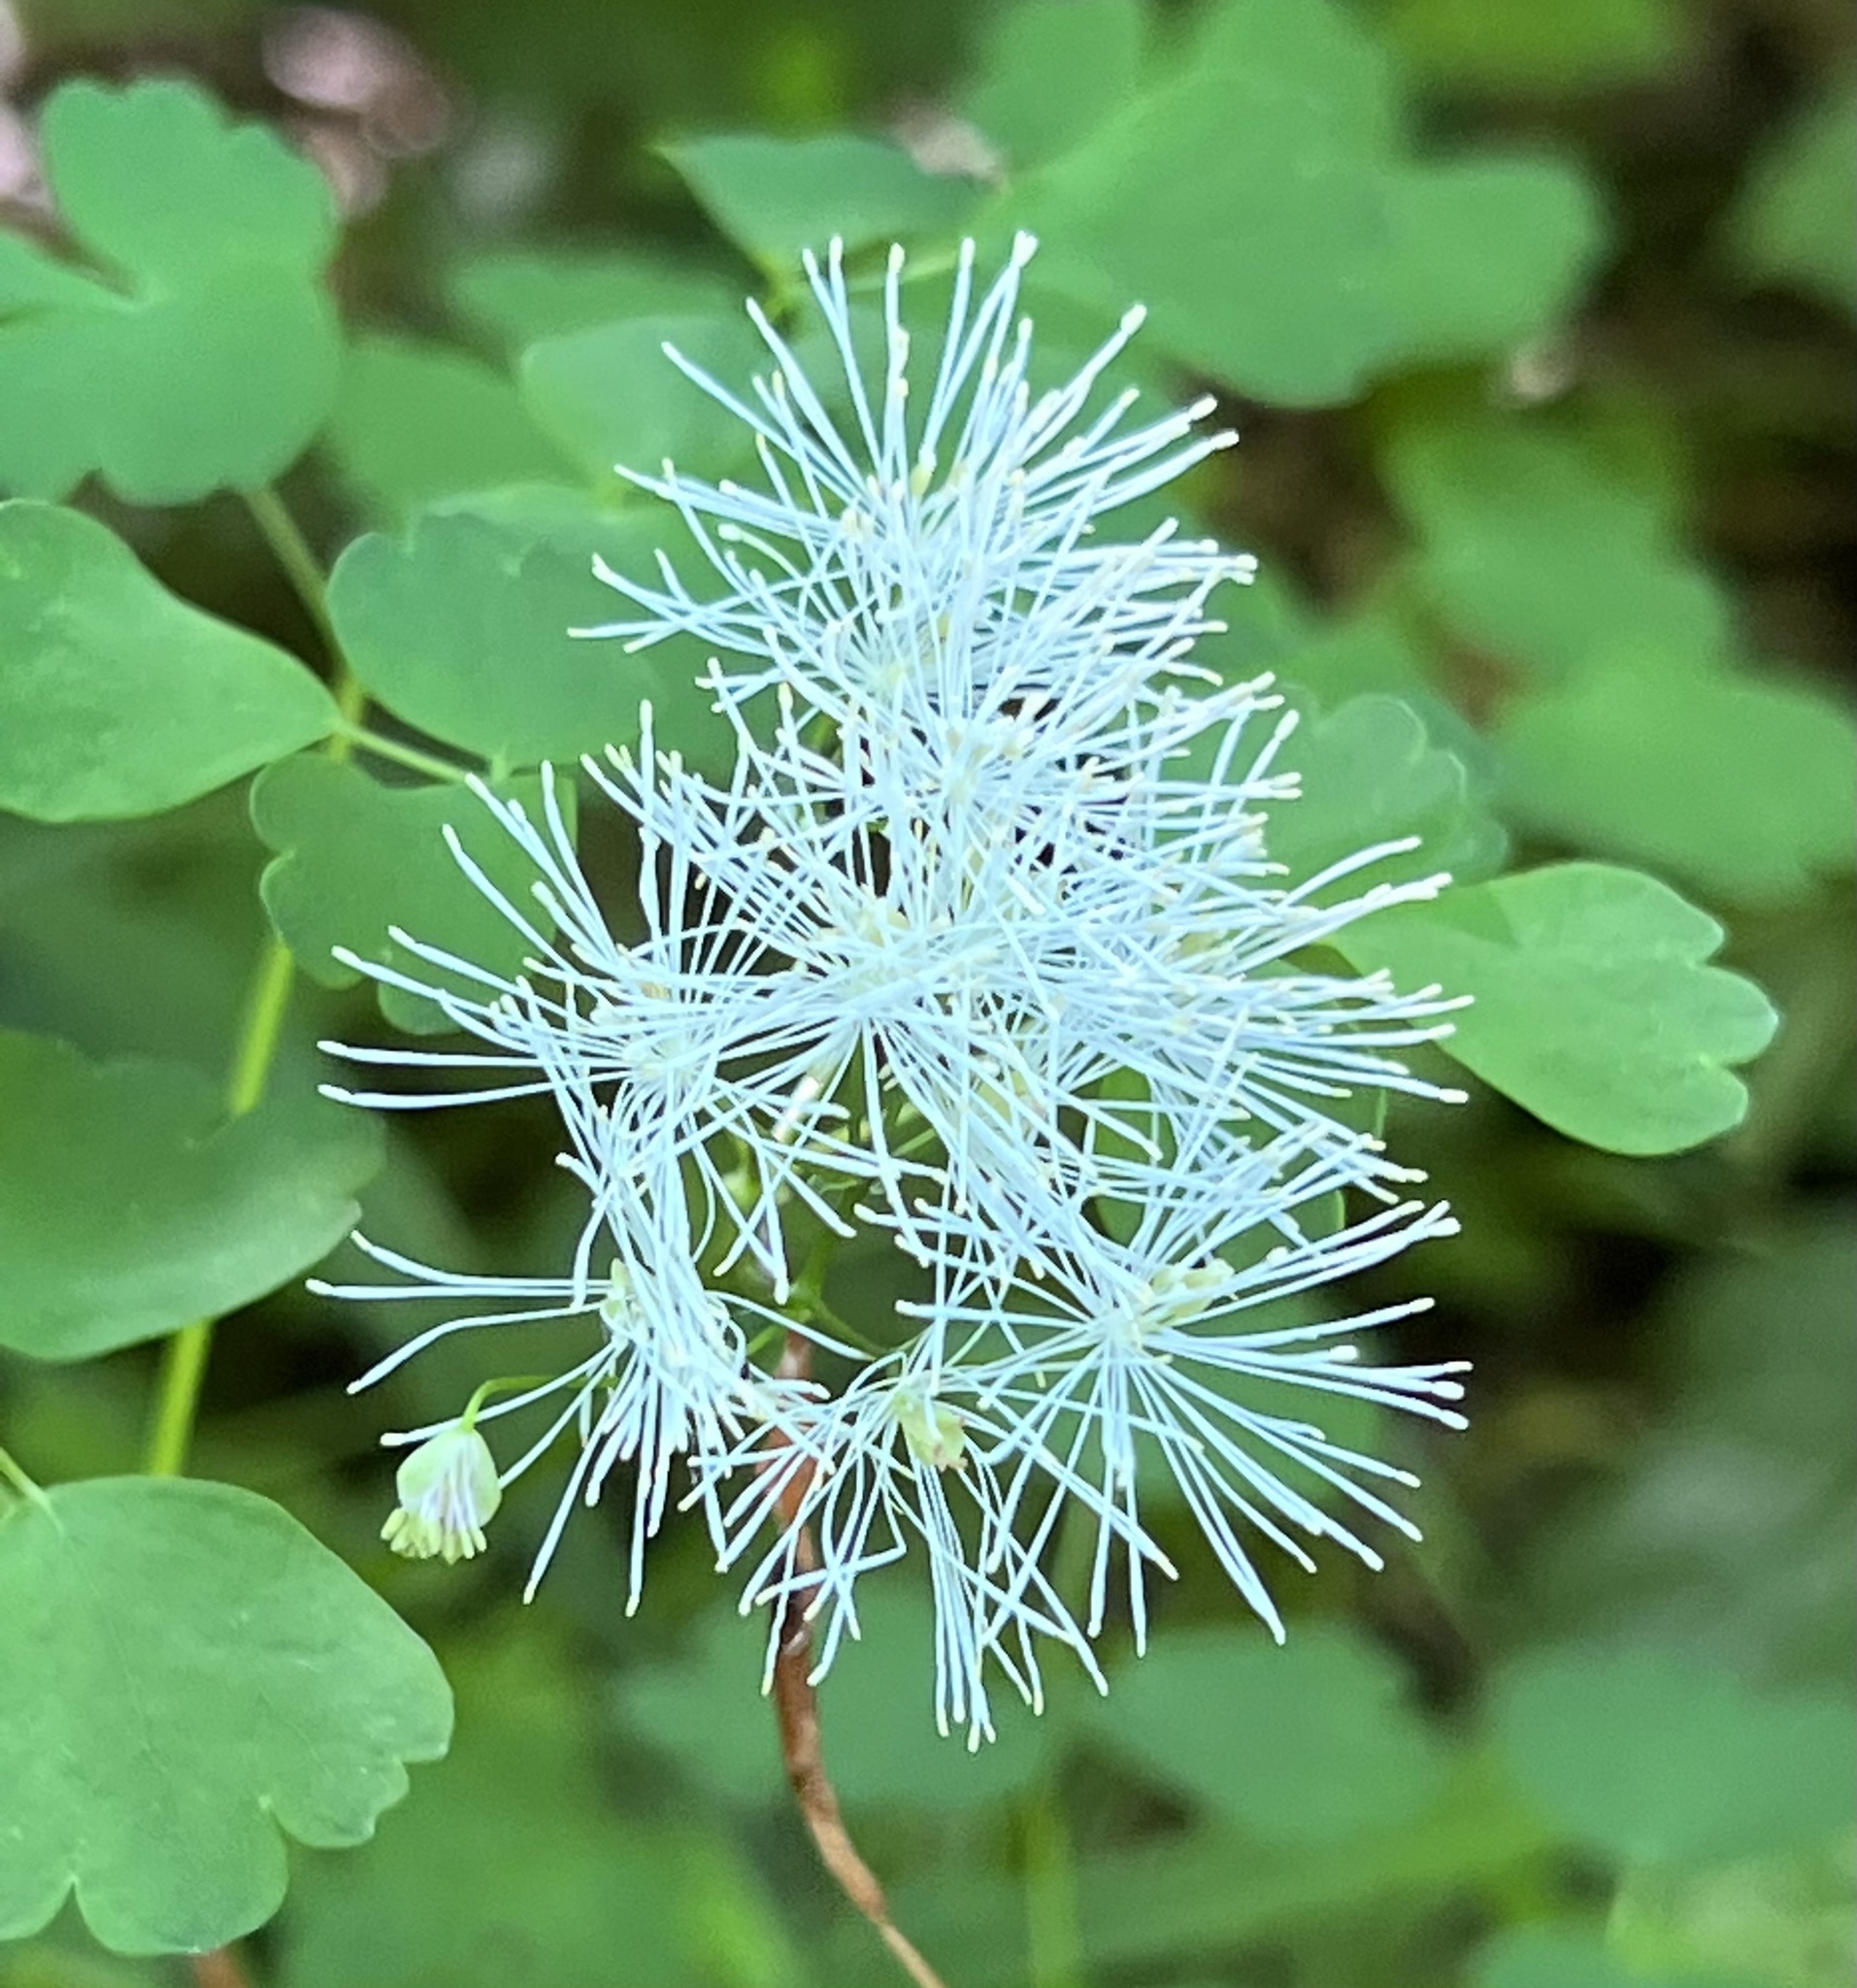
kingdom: Plantae
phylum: Tracheophyta
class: Magnoliopsida
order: Ranunculales
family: Ranunculaceae
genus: Thalictrum
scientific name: Thalictrum aquilegiifolium
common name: French meadow-rue
